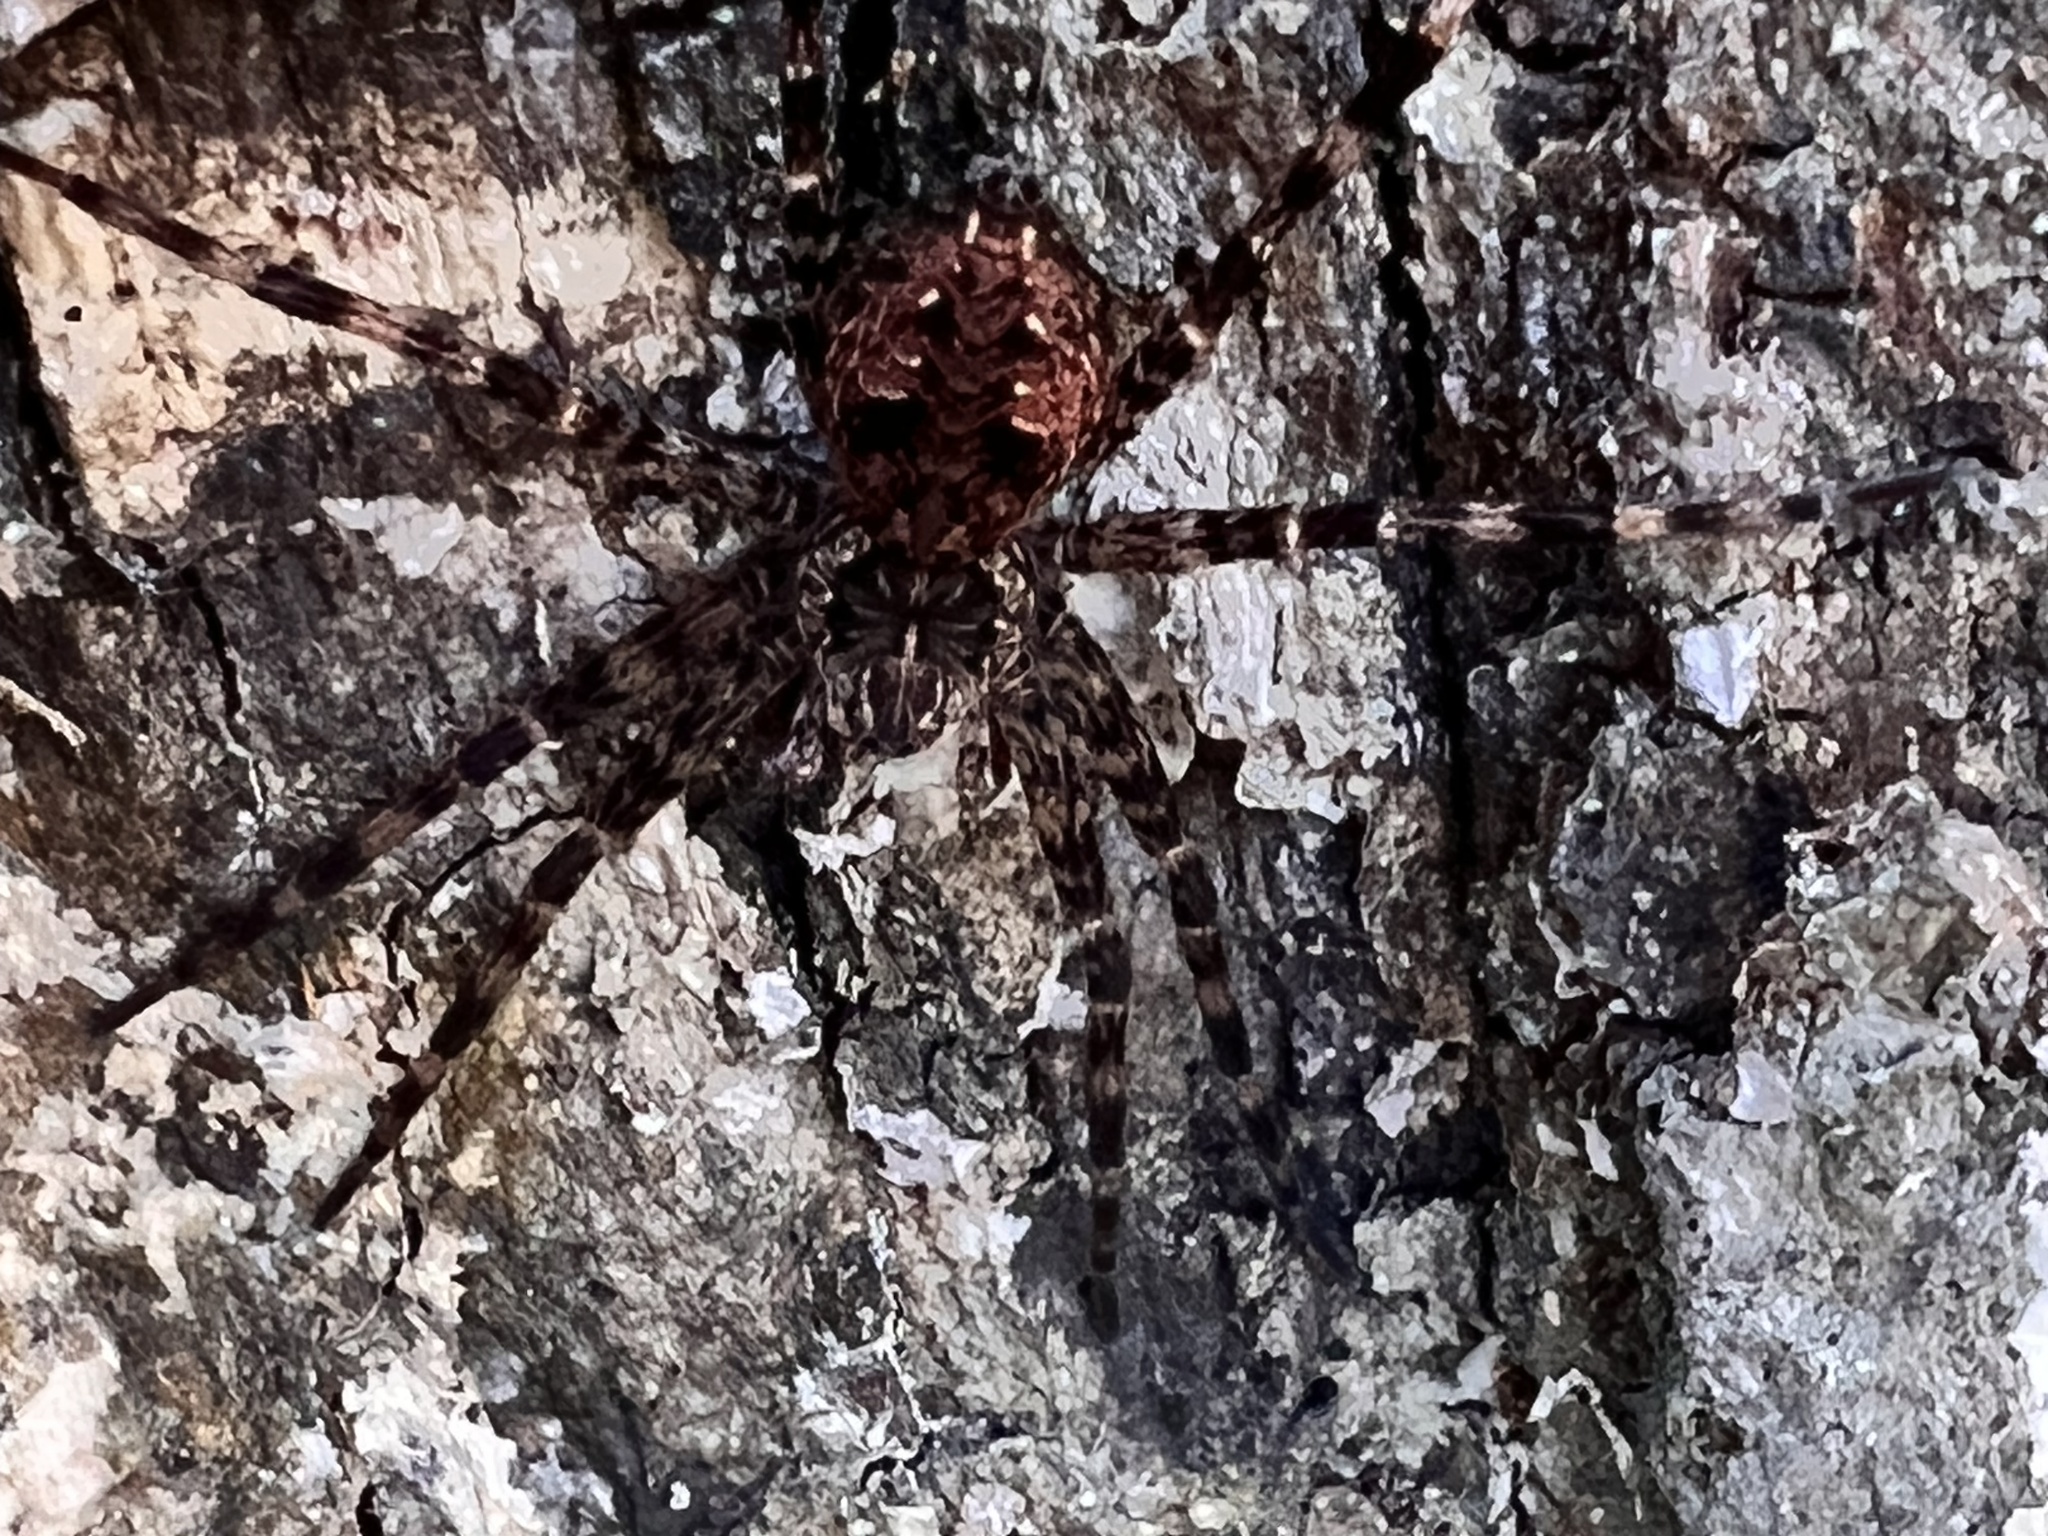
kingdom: Animalia
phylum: Arthropoda
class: Arachnida
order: Araneae
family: Pisauridae
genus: Dolomedes
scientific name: Dolomedes tenebrosus
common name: Dark fishing spider
